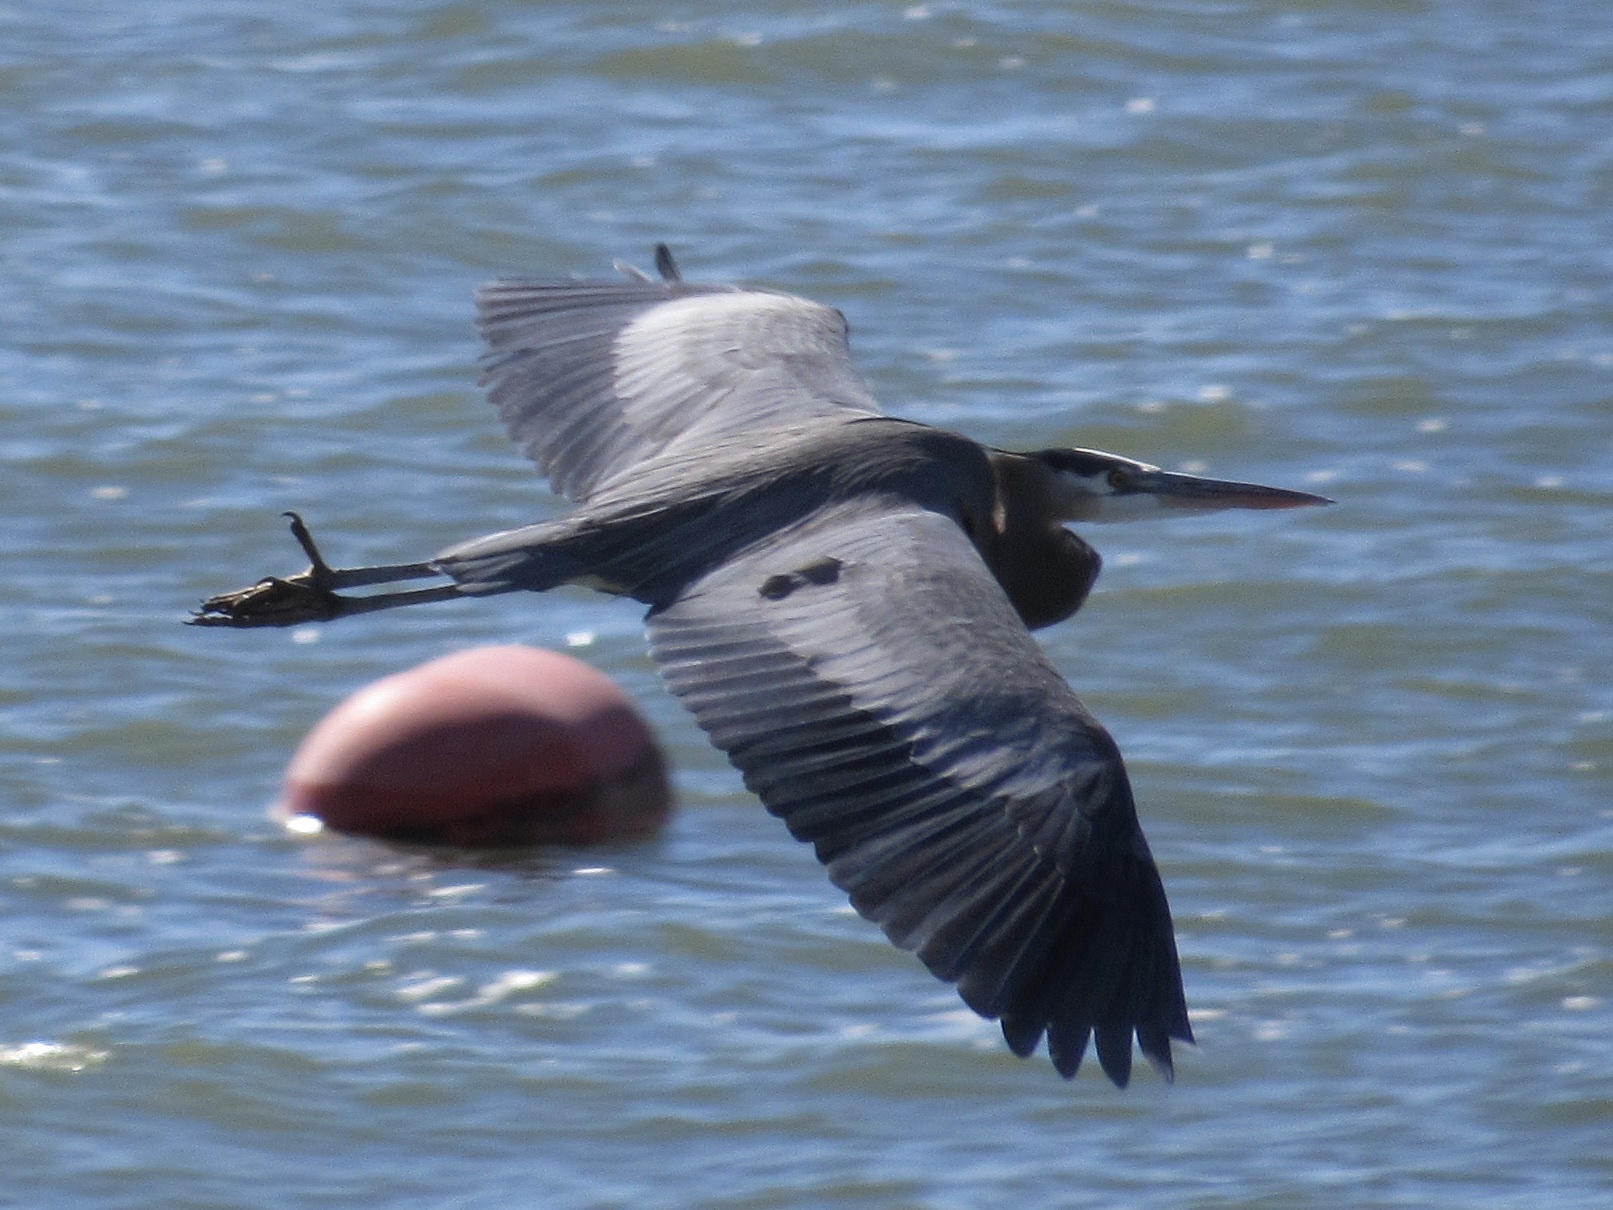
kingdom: Animalia
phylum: Chordata
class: Aves
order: Pelecaniformes
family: Ardeidae
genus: Ardea
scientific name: Ardea herodias
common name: Great blue heron
